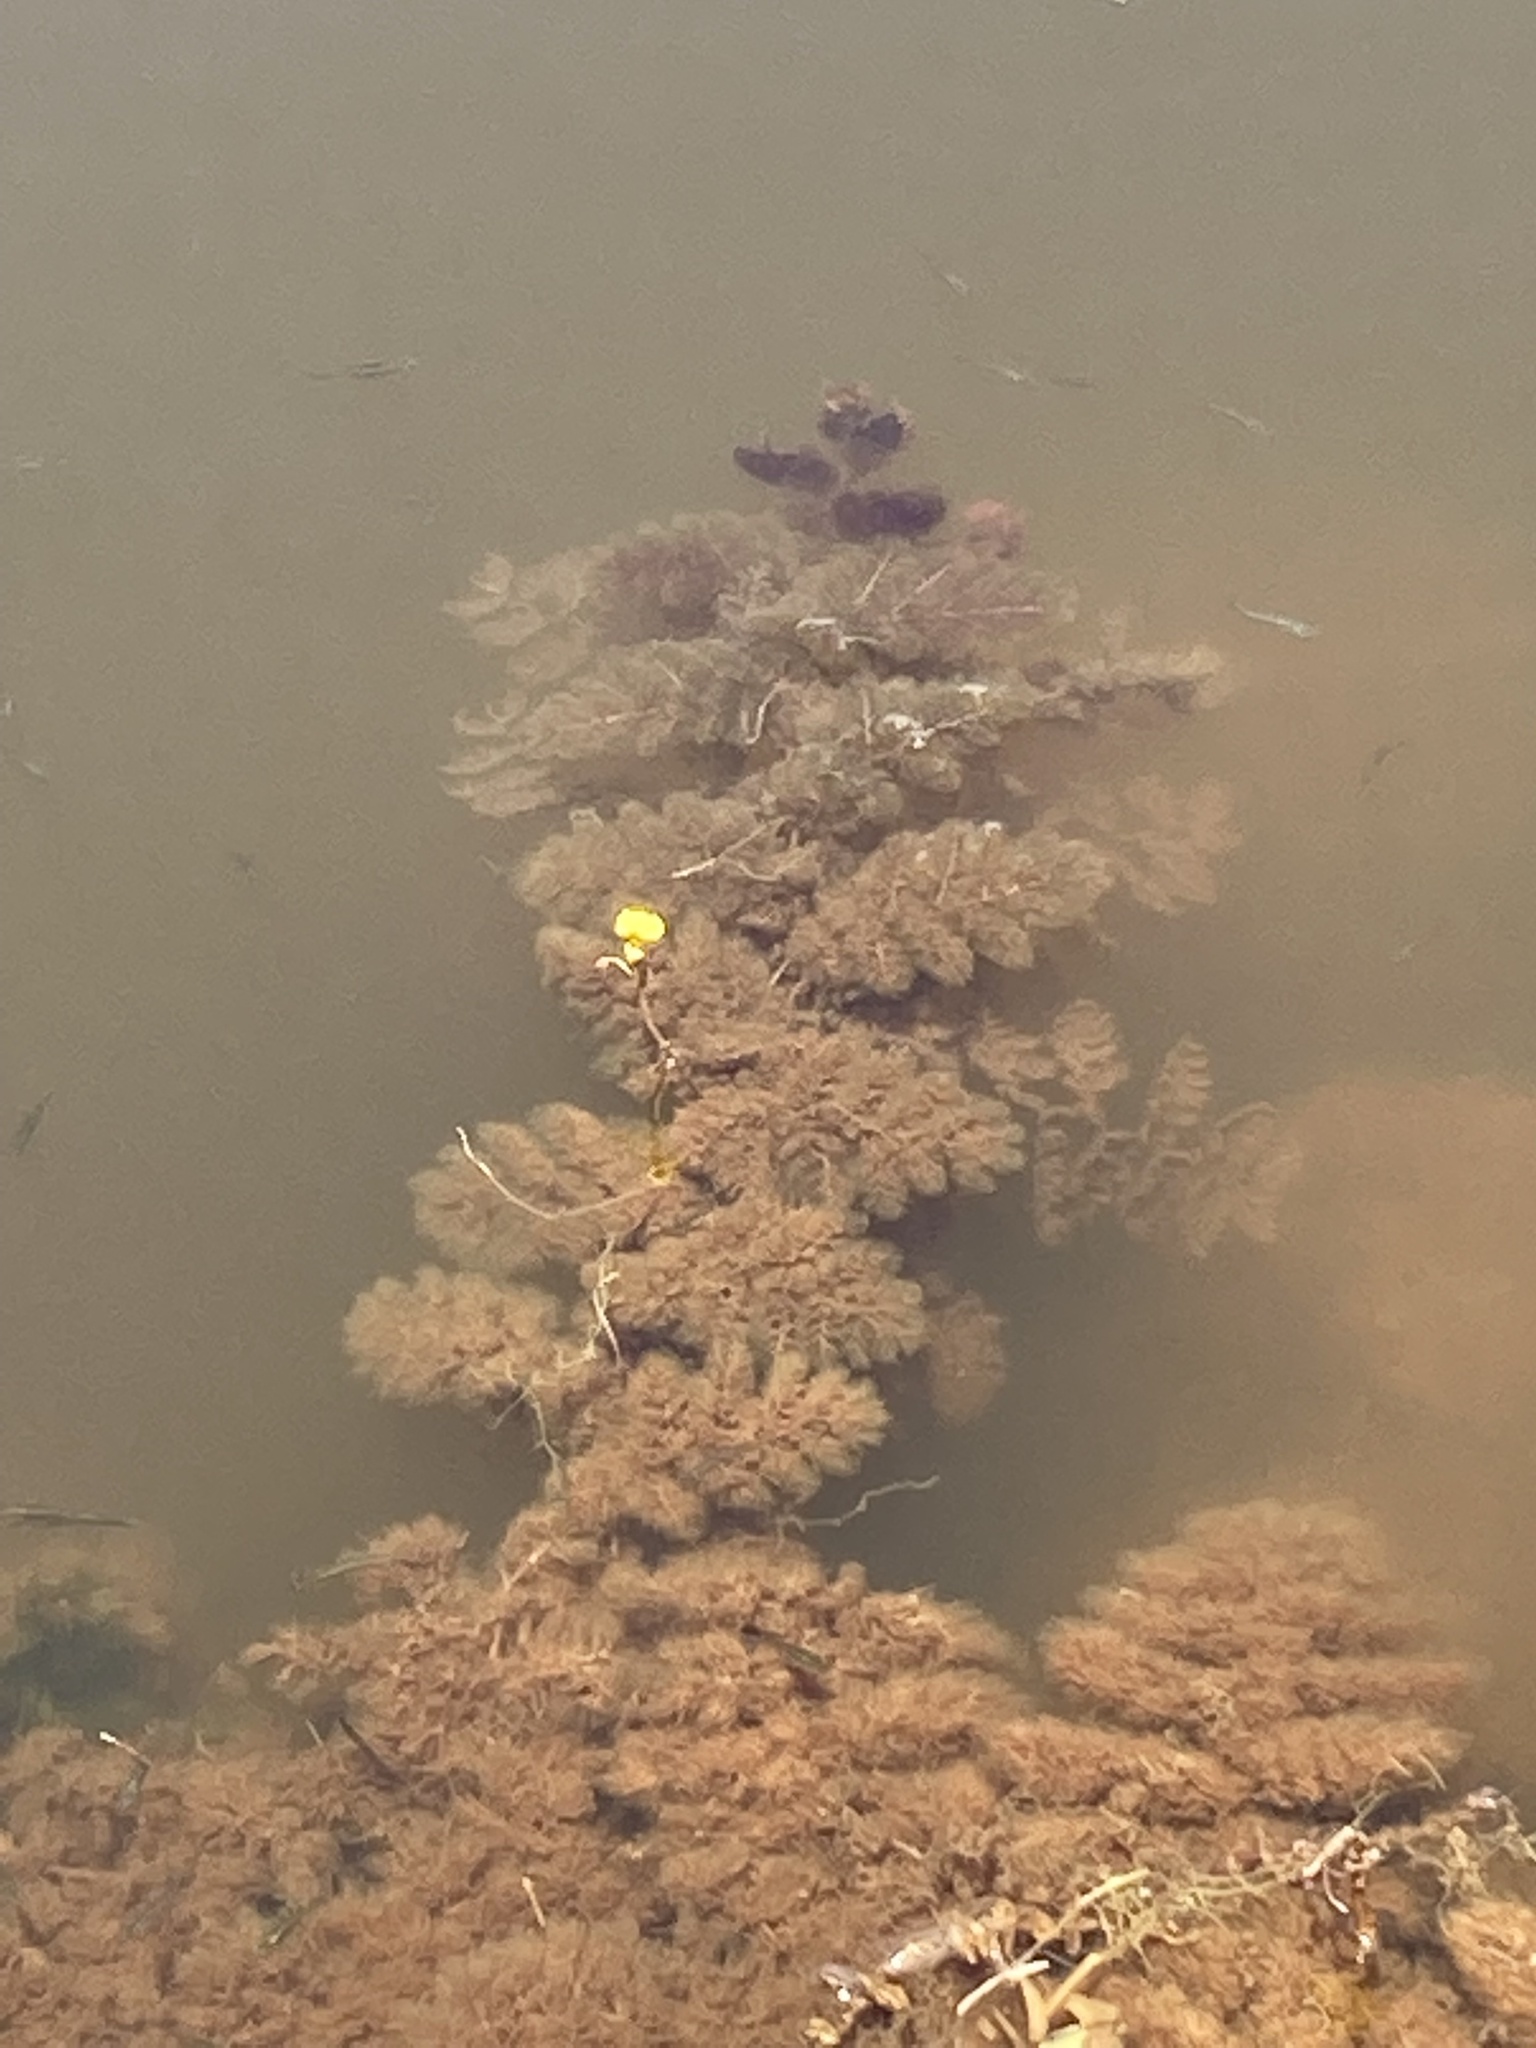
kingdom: Plantae
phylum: Tracheophyta
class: Magnoliopsida
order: Lamiales
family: Lentibulariaceae
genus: Utricularia
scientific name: Utricularia foliosa
